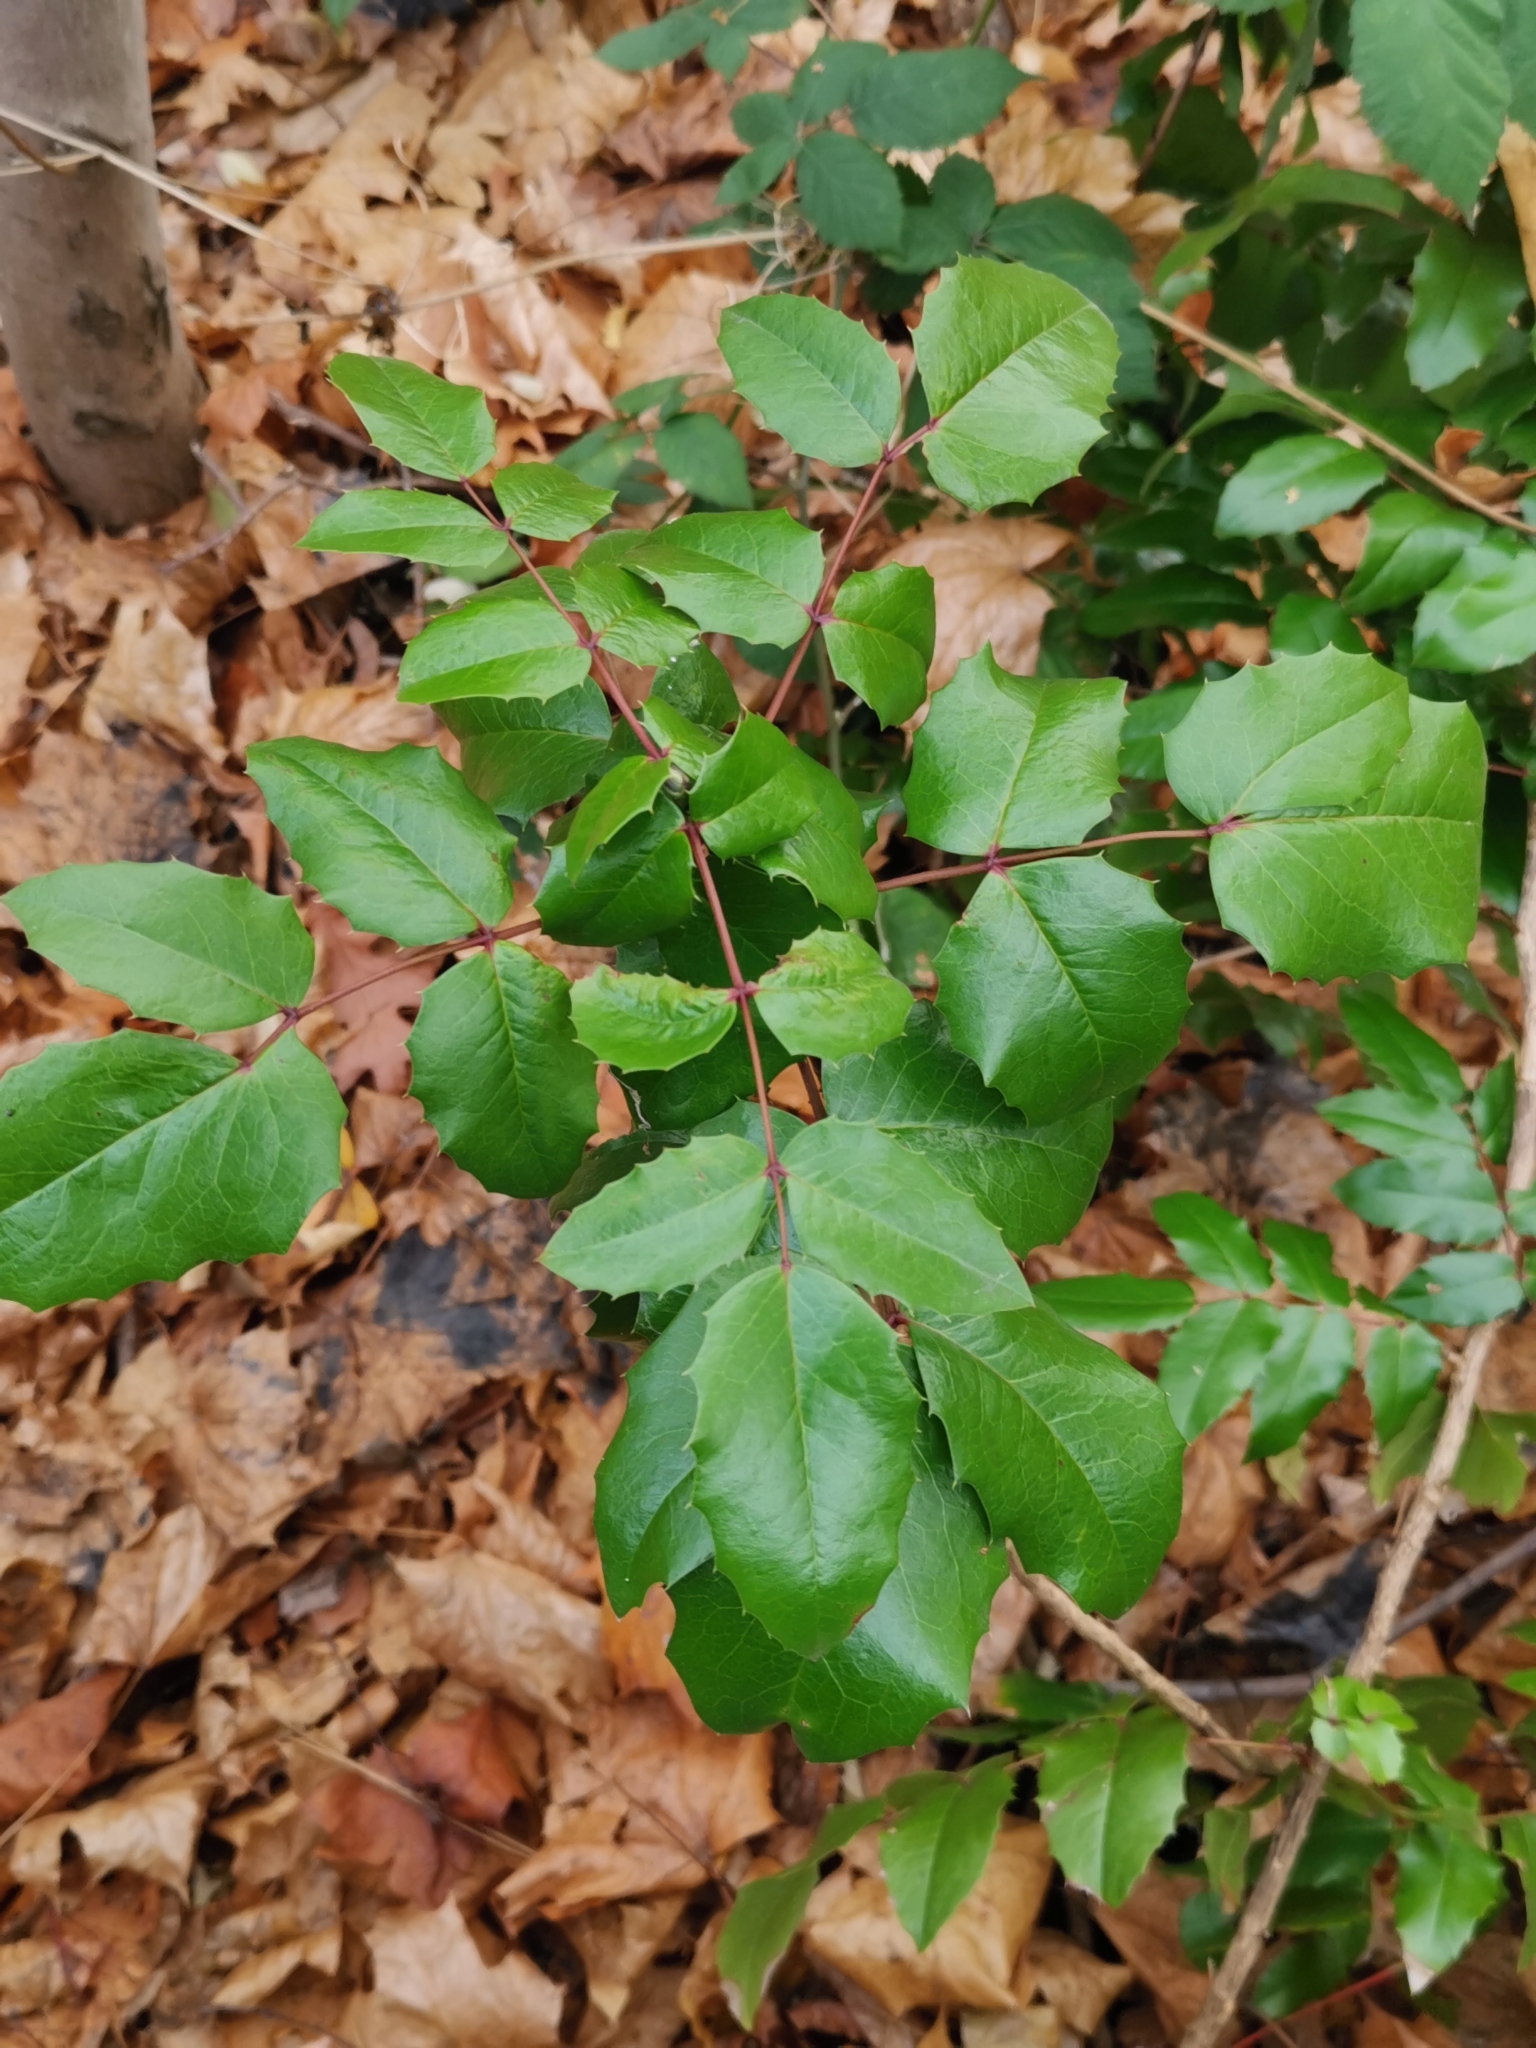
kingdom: Plantae
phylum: Tracheophyta
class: Magnoliopsida
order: Ranunculales
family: Berberidaceae
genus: Mahonia
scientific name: Mahonia aquifolium
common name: Oregon-grape
